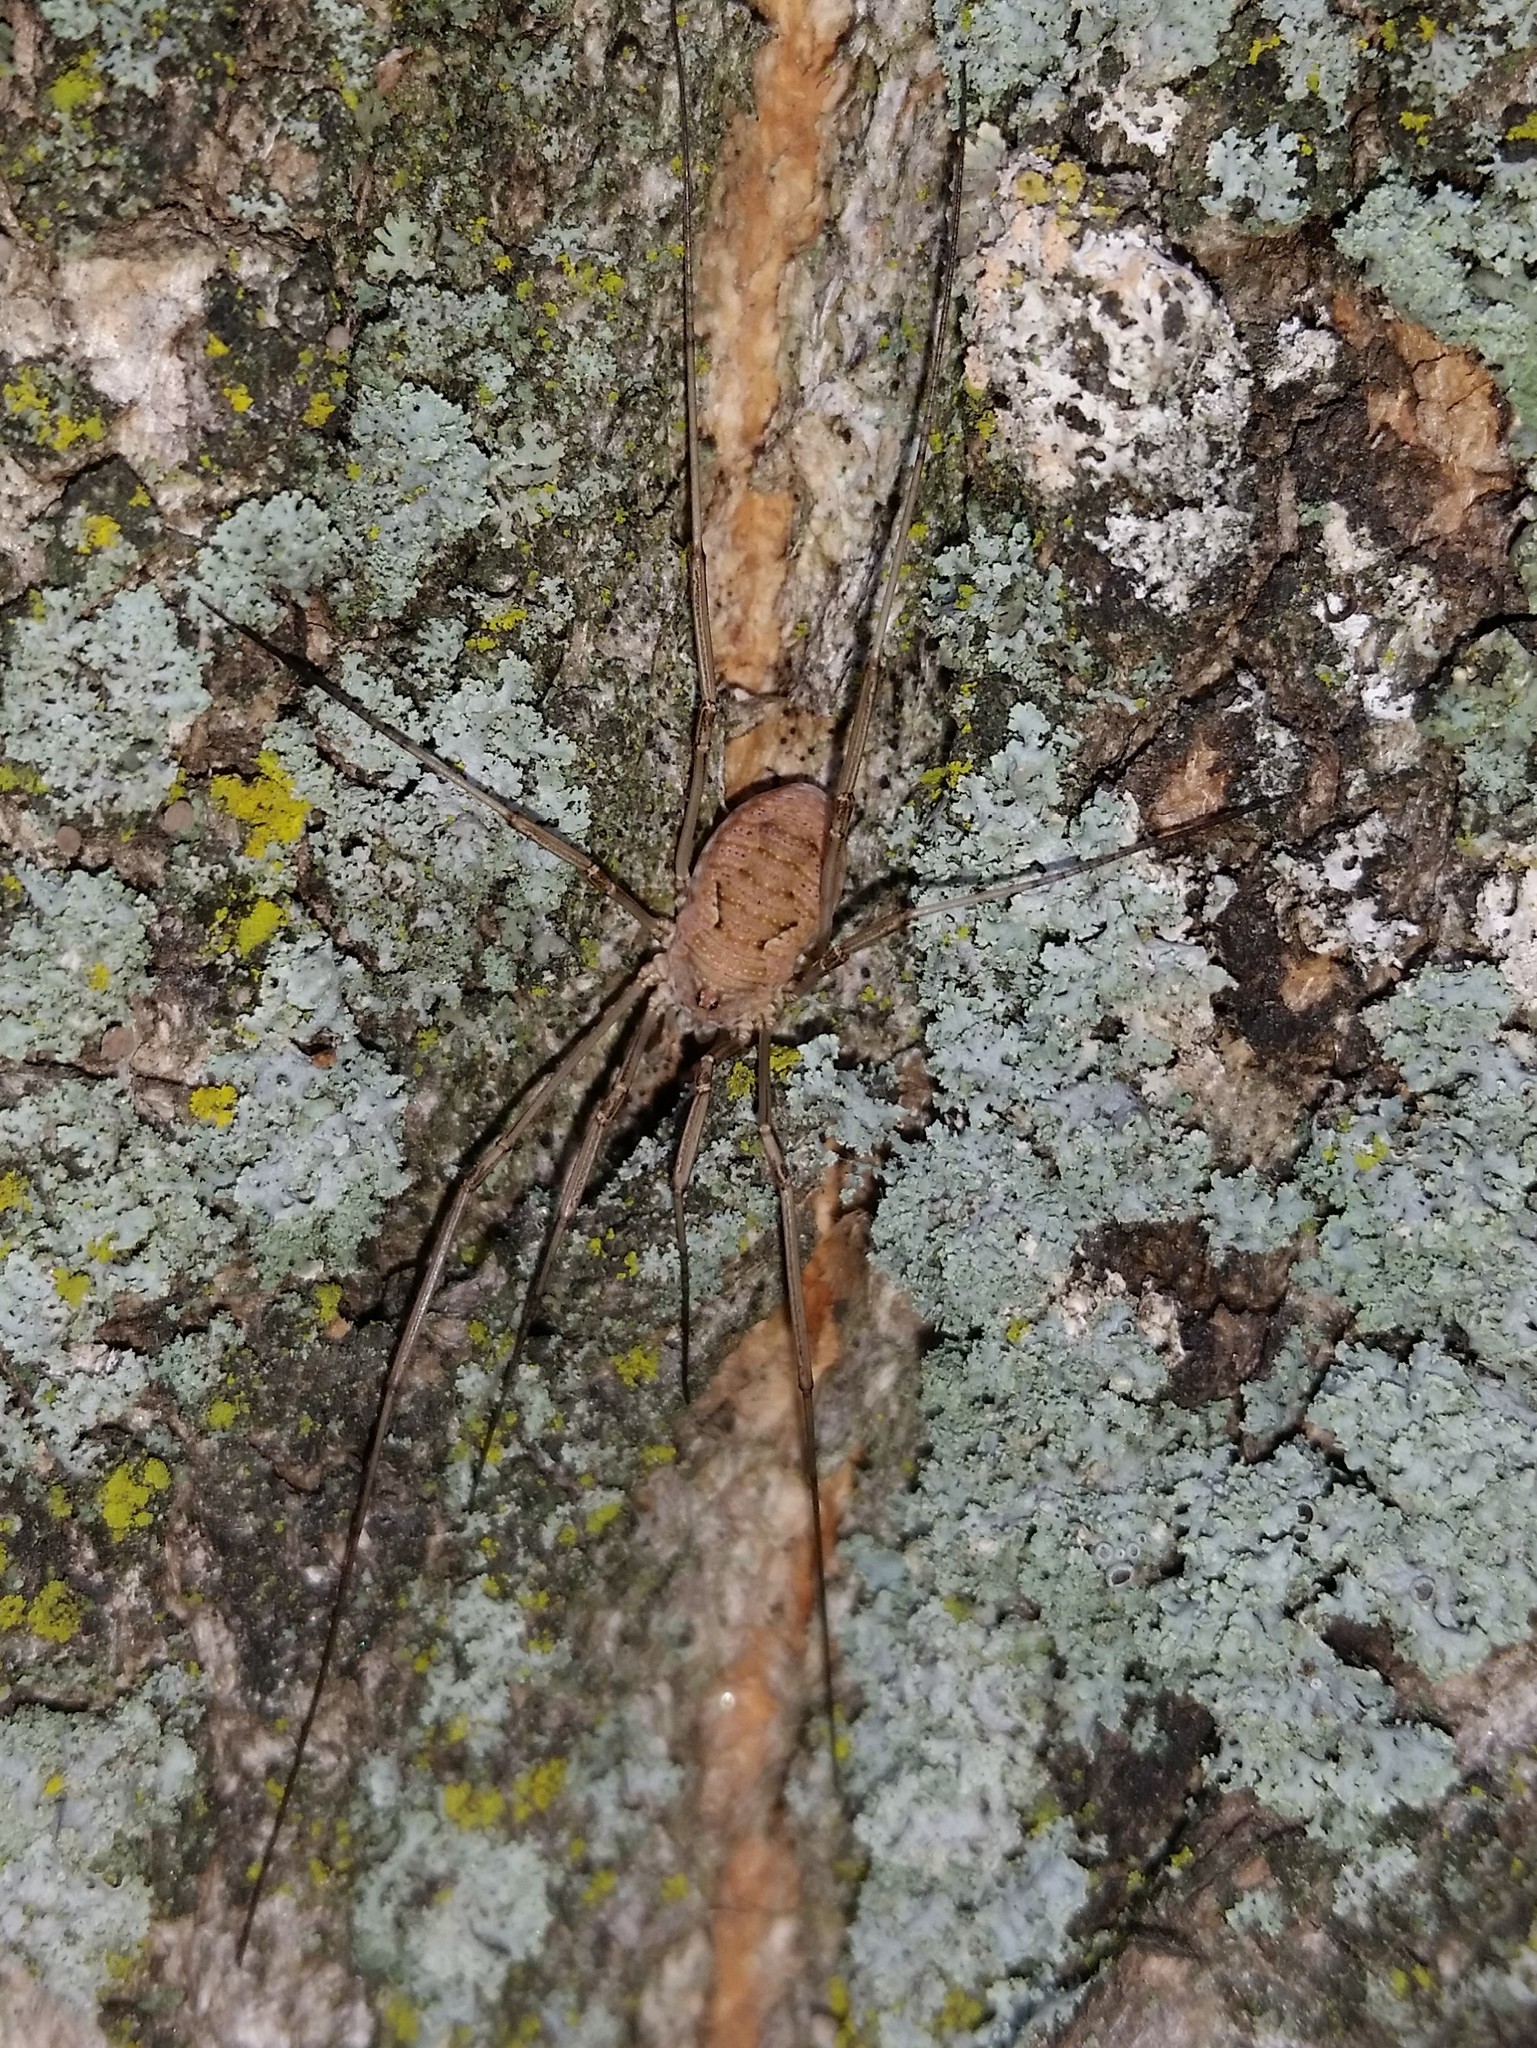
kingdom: Animalia
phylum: Arthropoda
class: Arachnida
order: Opiliones
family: Phalangiidae
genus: Phalangium
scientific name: Phalangium opilio
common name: Daddy longleg
